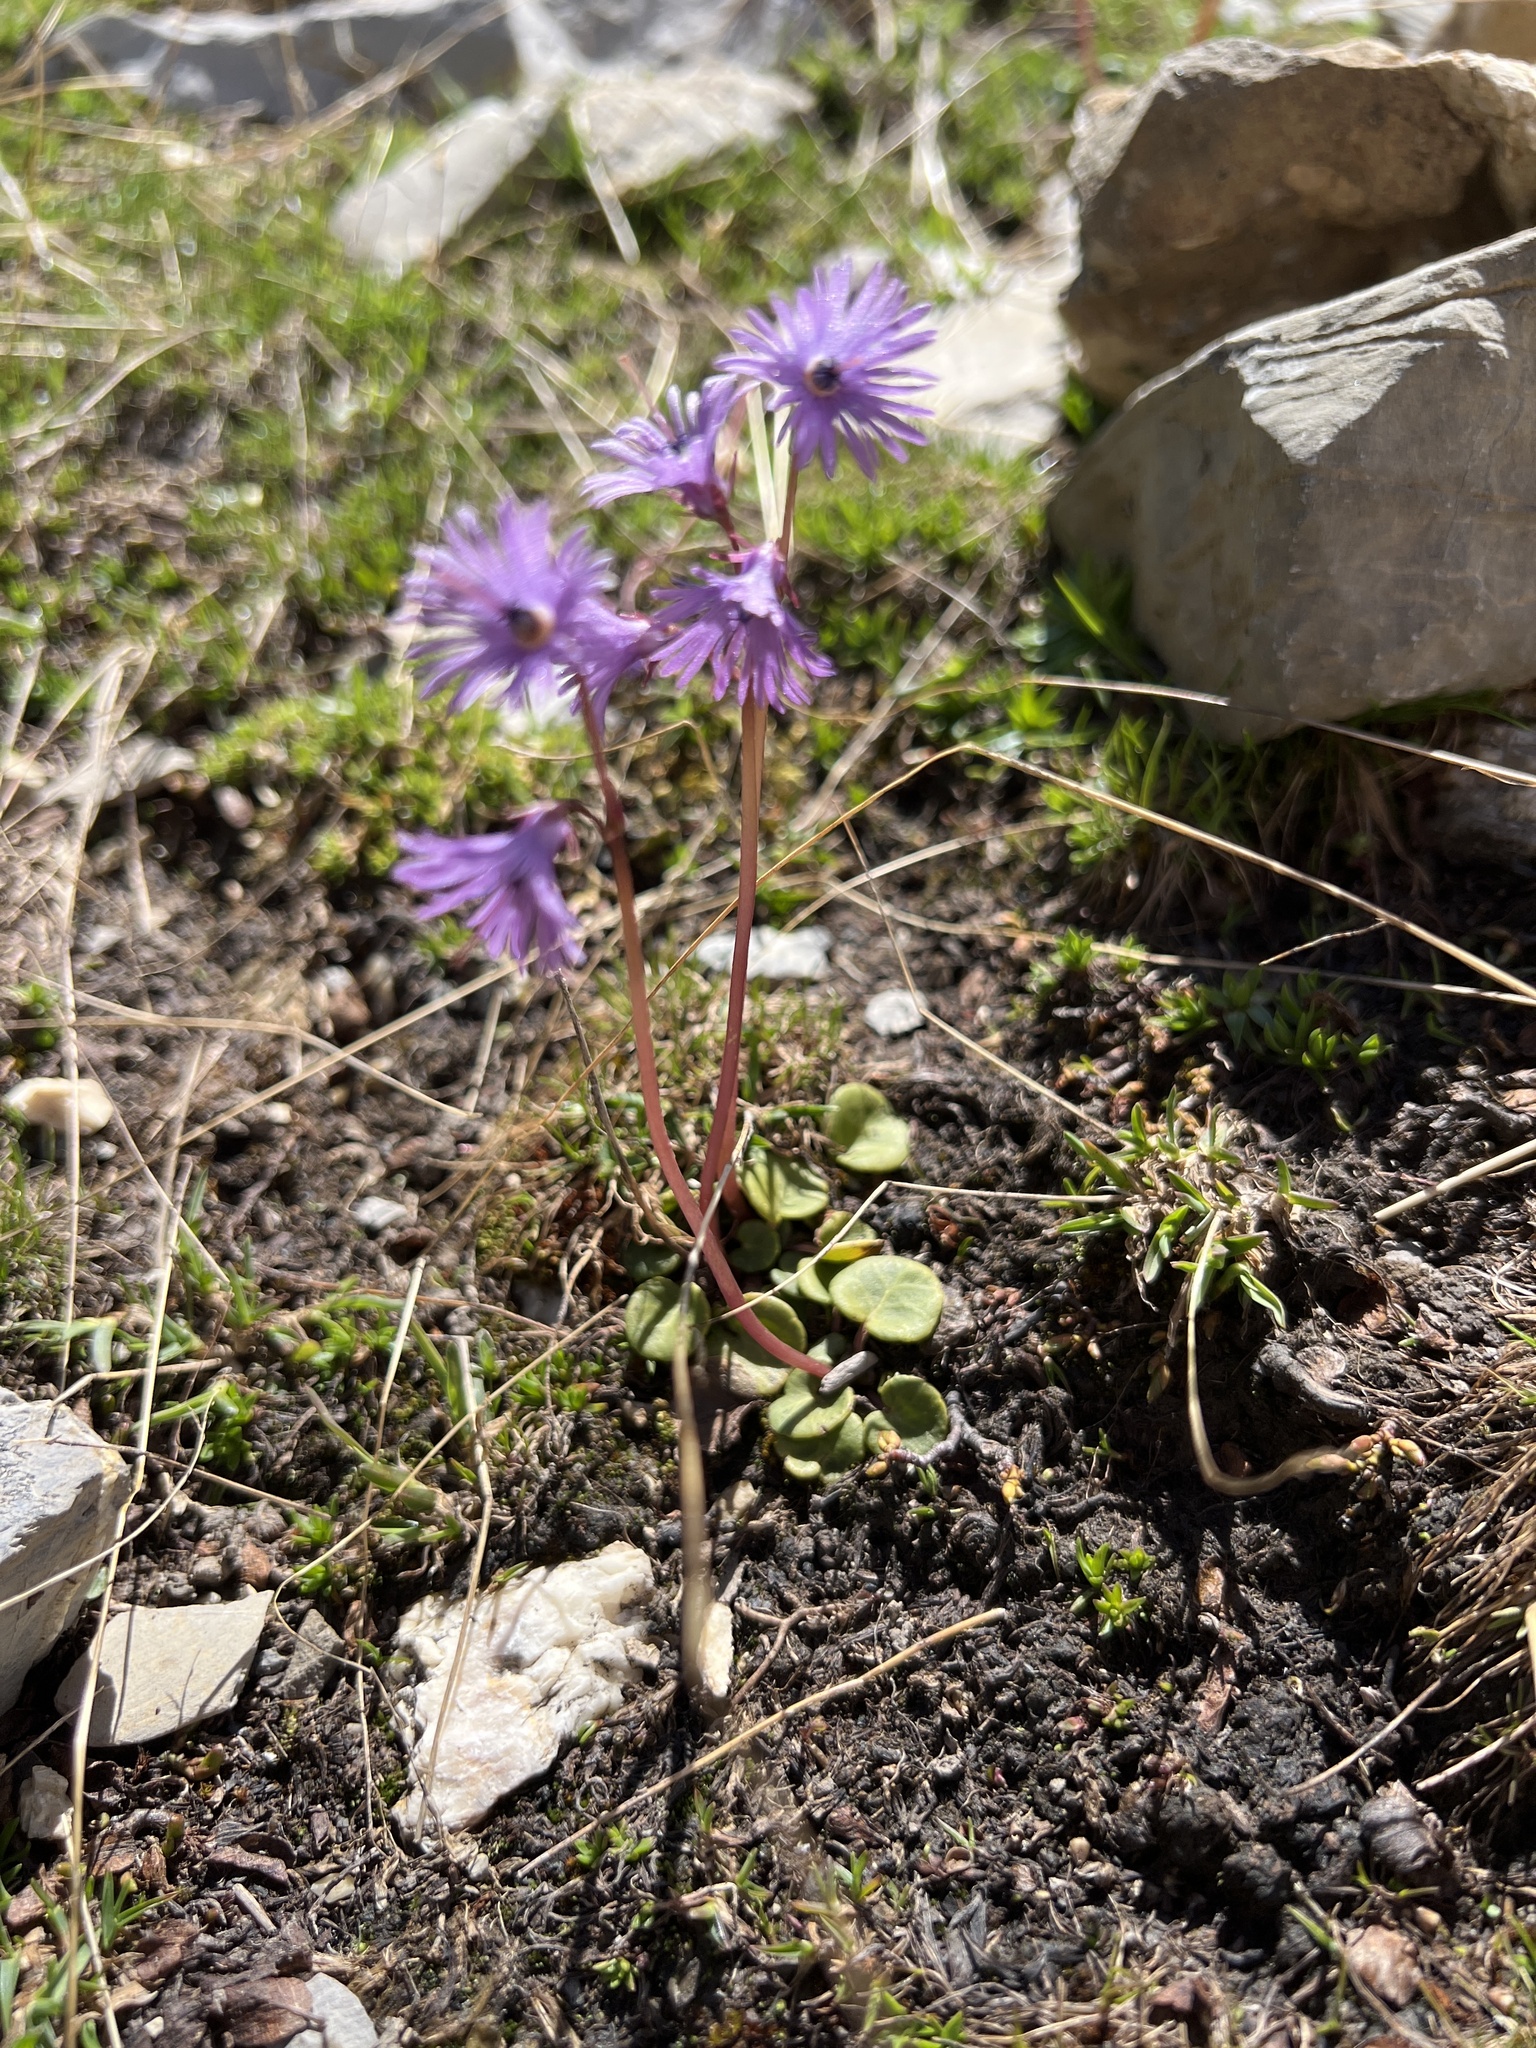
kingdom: Plantae
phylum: Tracheophyta
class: Magnoliopsida
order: Ericales
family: Primulaceae
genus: Soldanella
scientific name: Soldanella alpina
